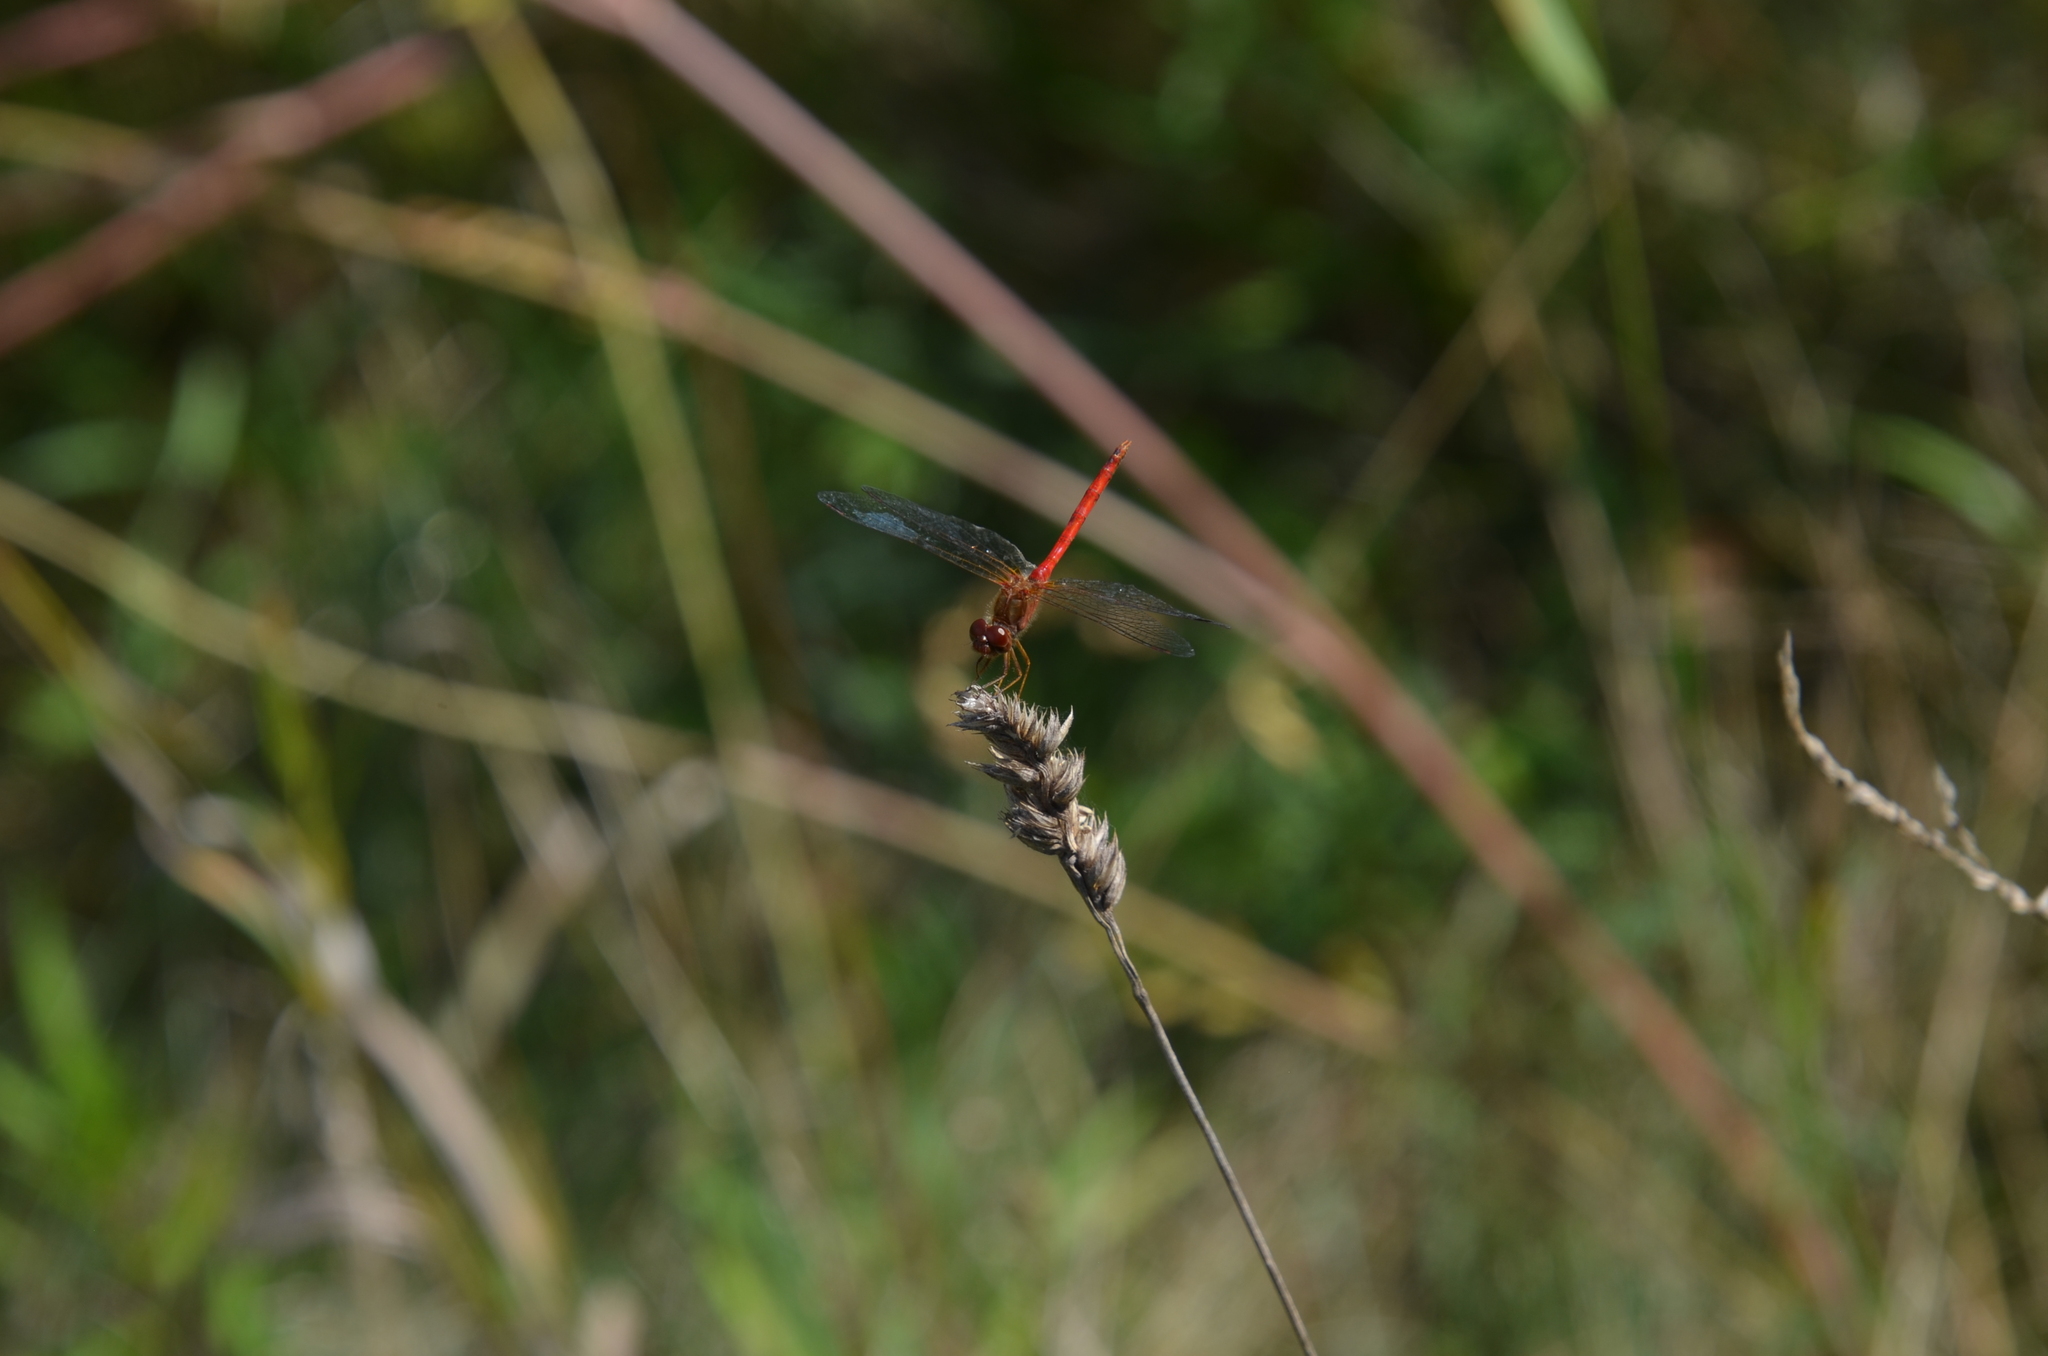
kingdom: Animalia
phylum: Arthropoda
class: Insecta
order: Odonata
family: Libellulidae
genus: Sympetrum
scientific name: Sympetrum vicinum
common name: Autumn meadowhawk
